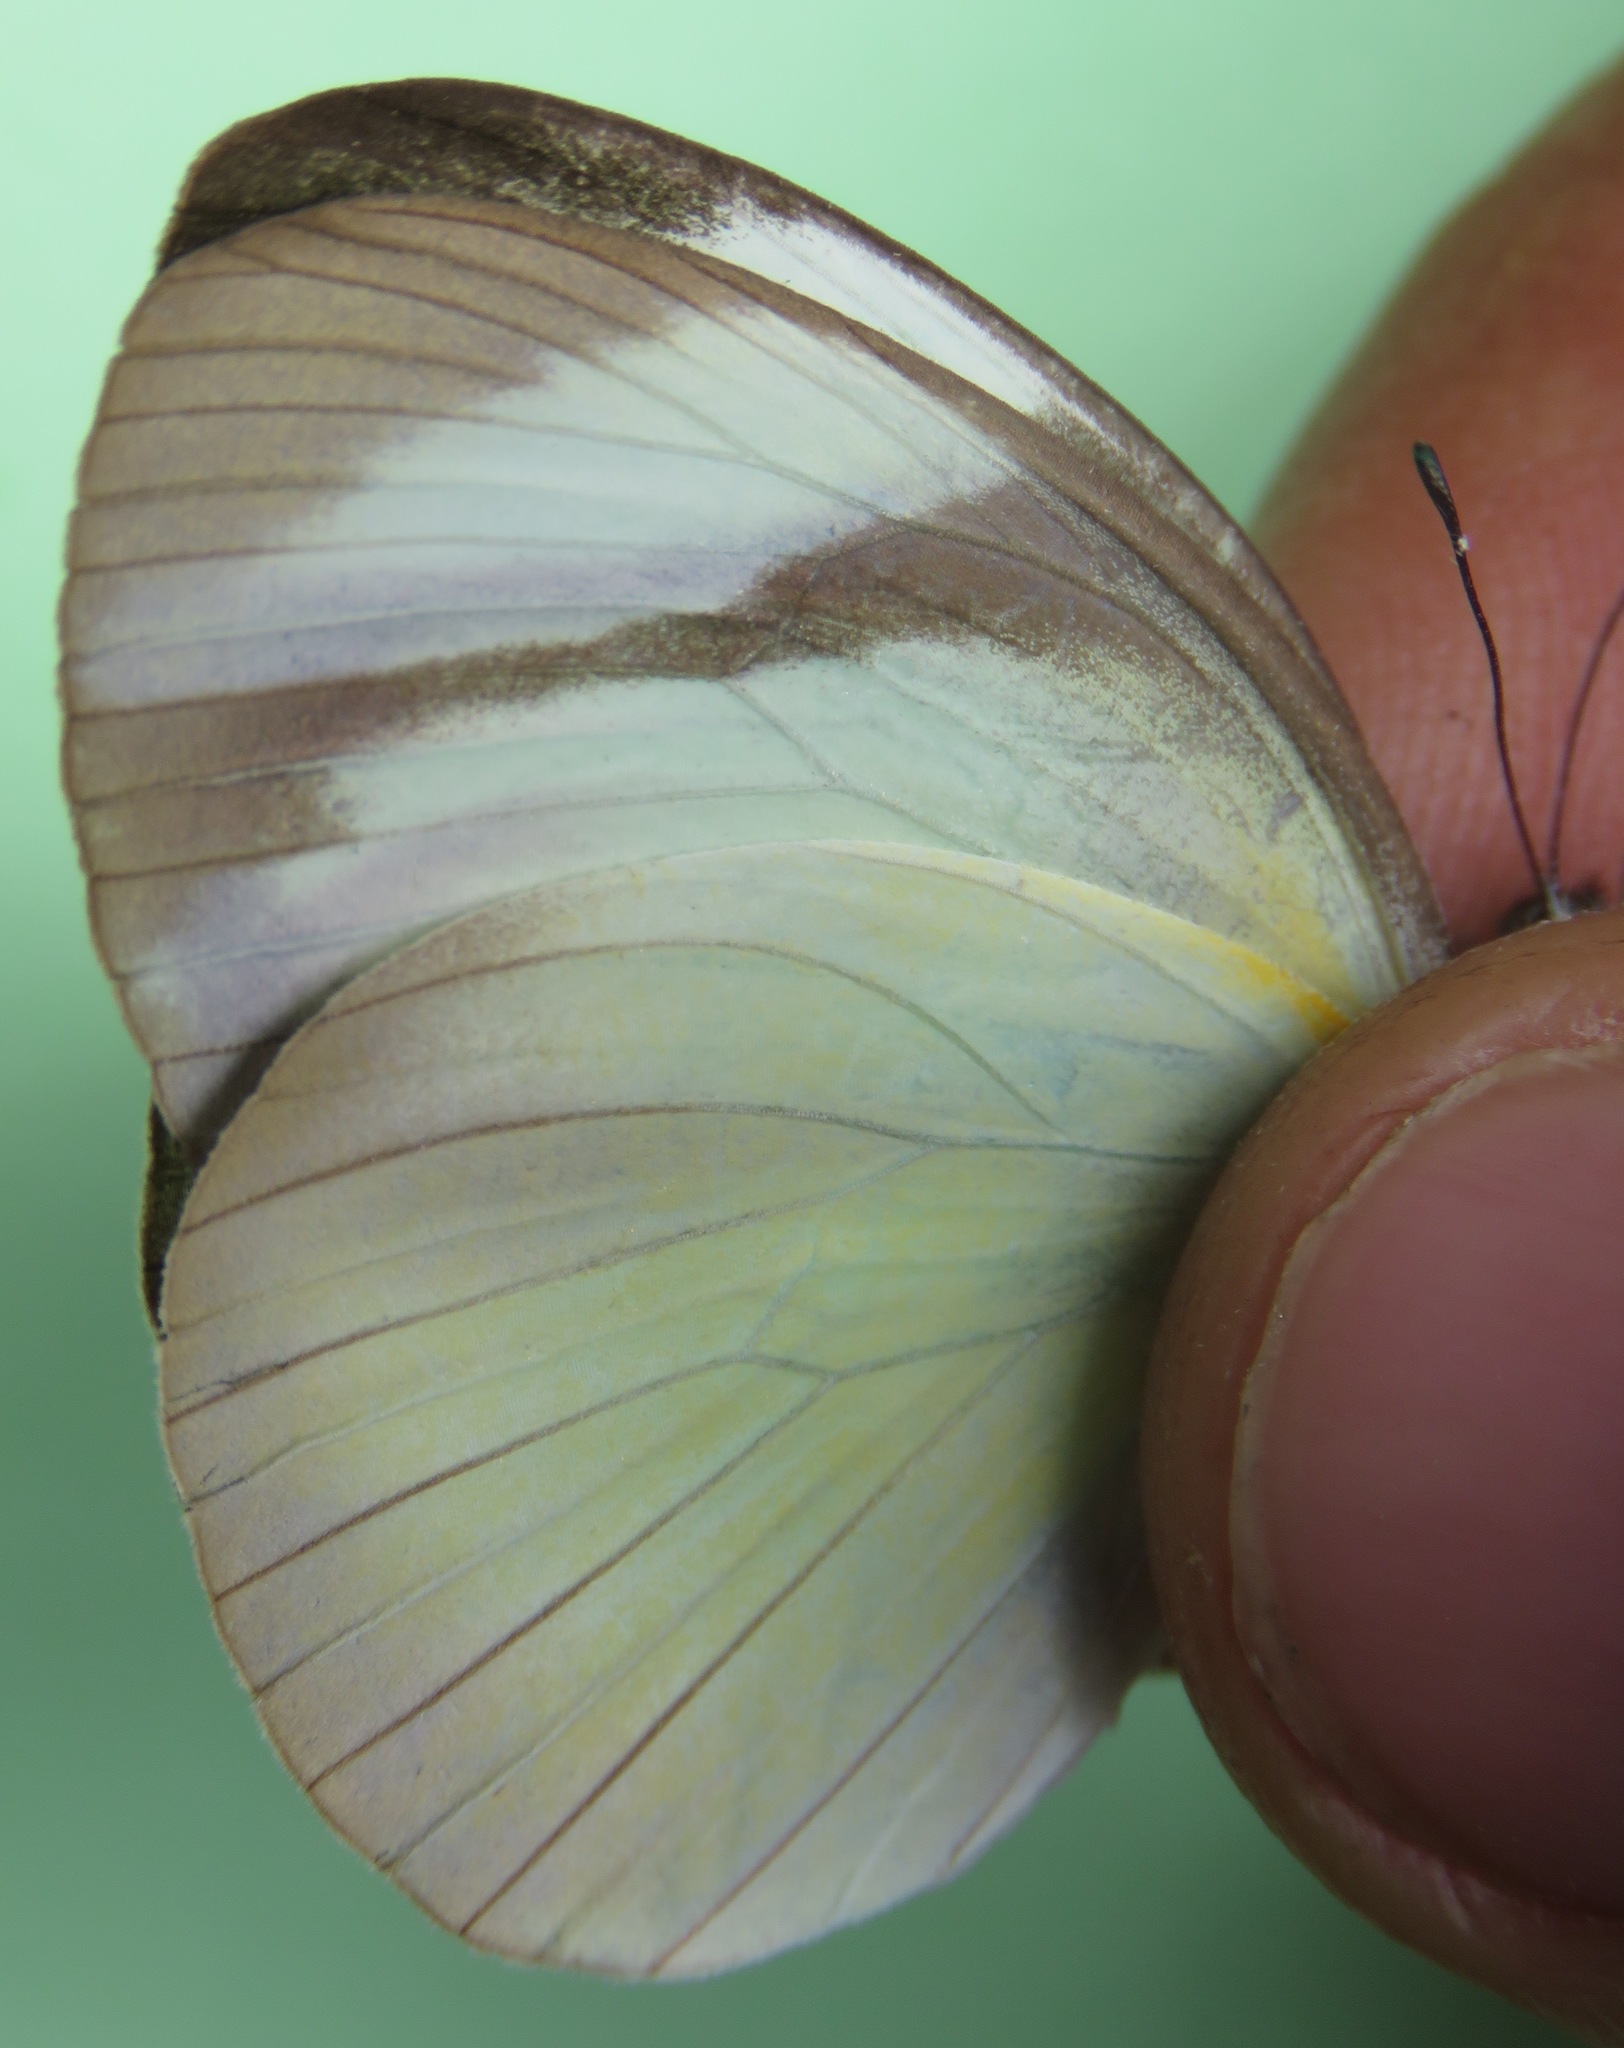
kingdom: Animalia
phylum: Arthropoda
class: Insecta
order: Lepidoptera
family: Pieridae
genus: Itaballia
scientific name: Itaballia demophile
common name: Cross-barred white
